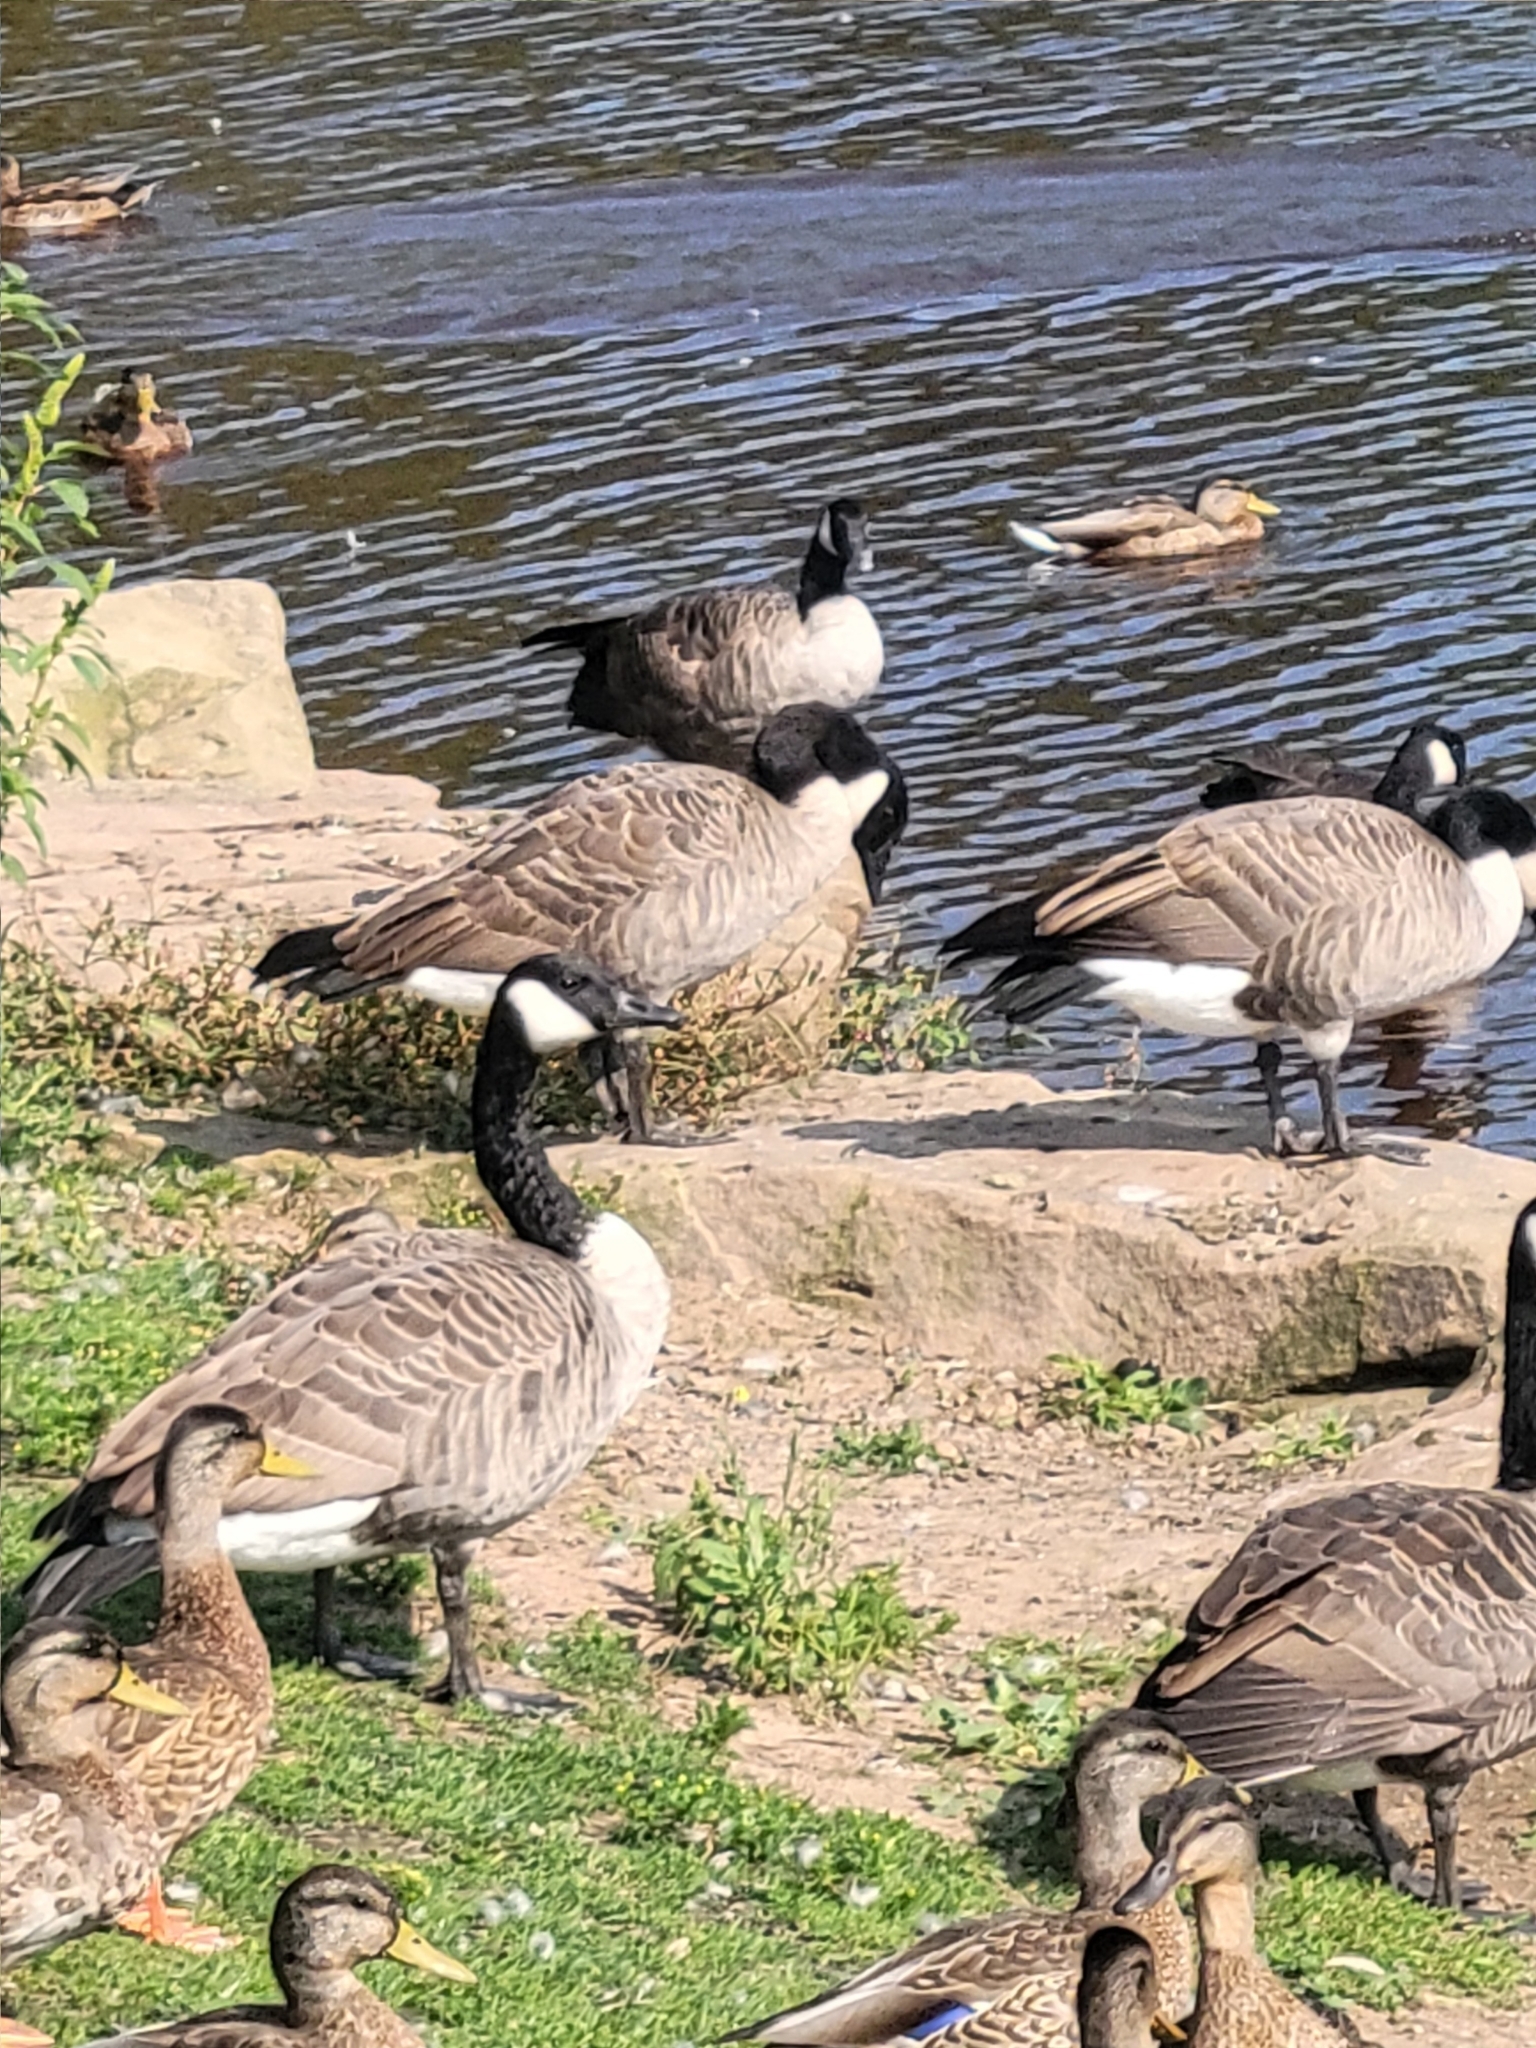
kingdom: Animalia
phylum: Chordata
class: Aves
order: Anseriformes
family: Anatidae
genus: Branta
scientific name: Branta canadensis
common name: Canada goose
